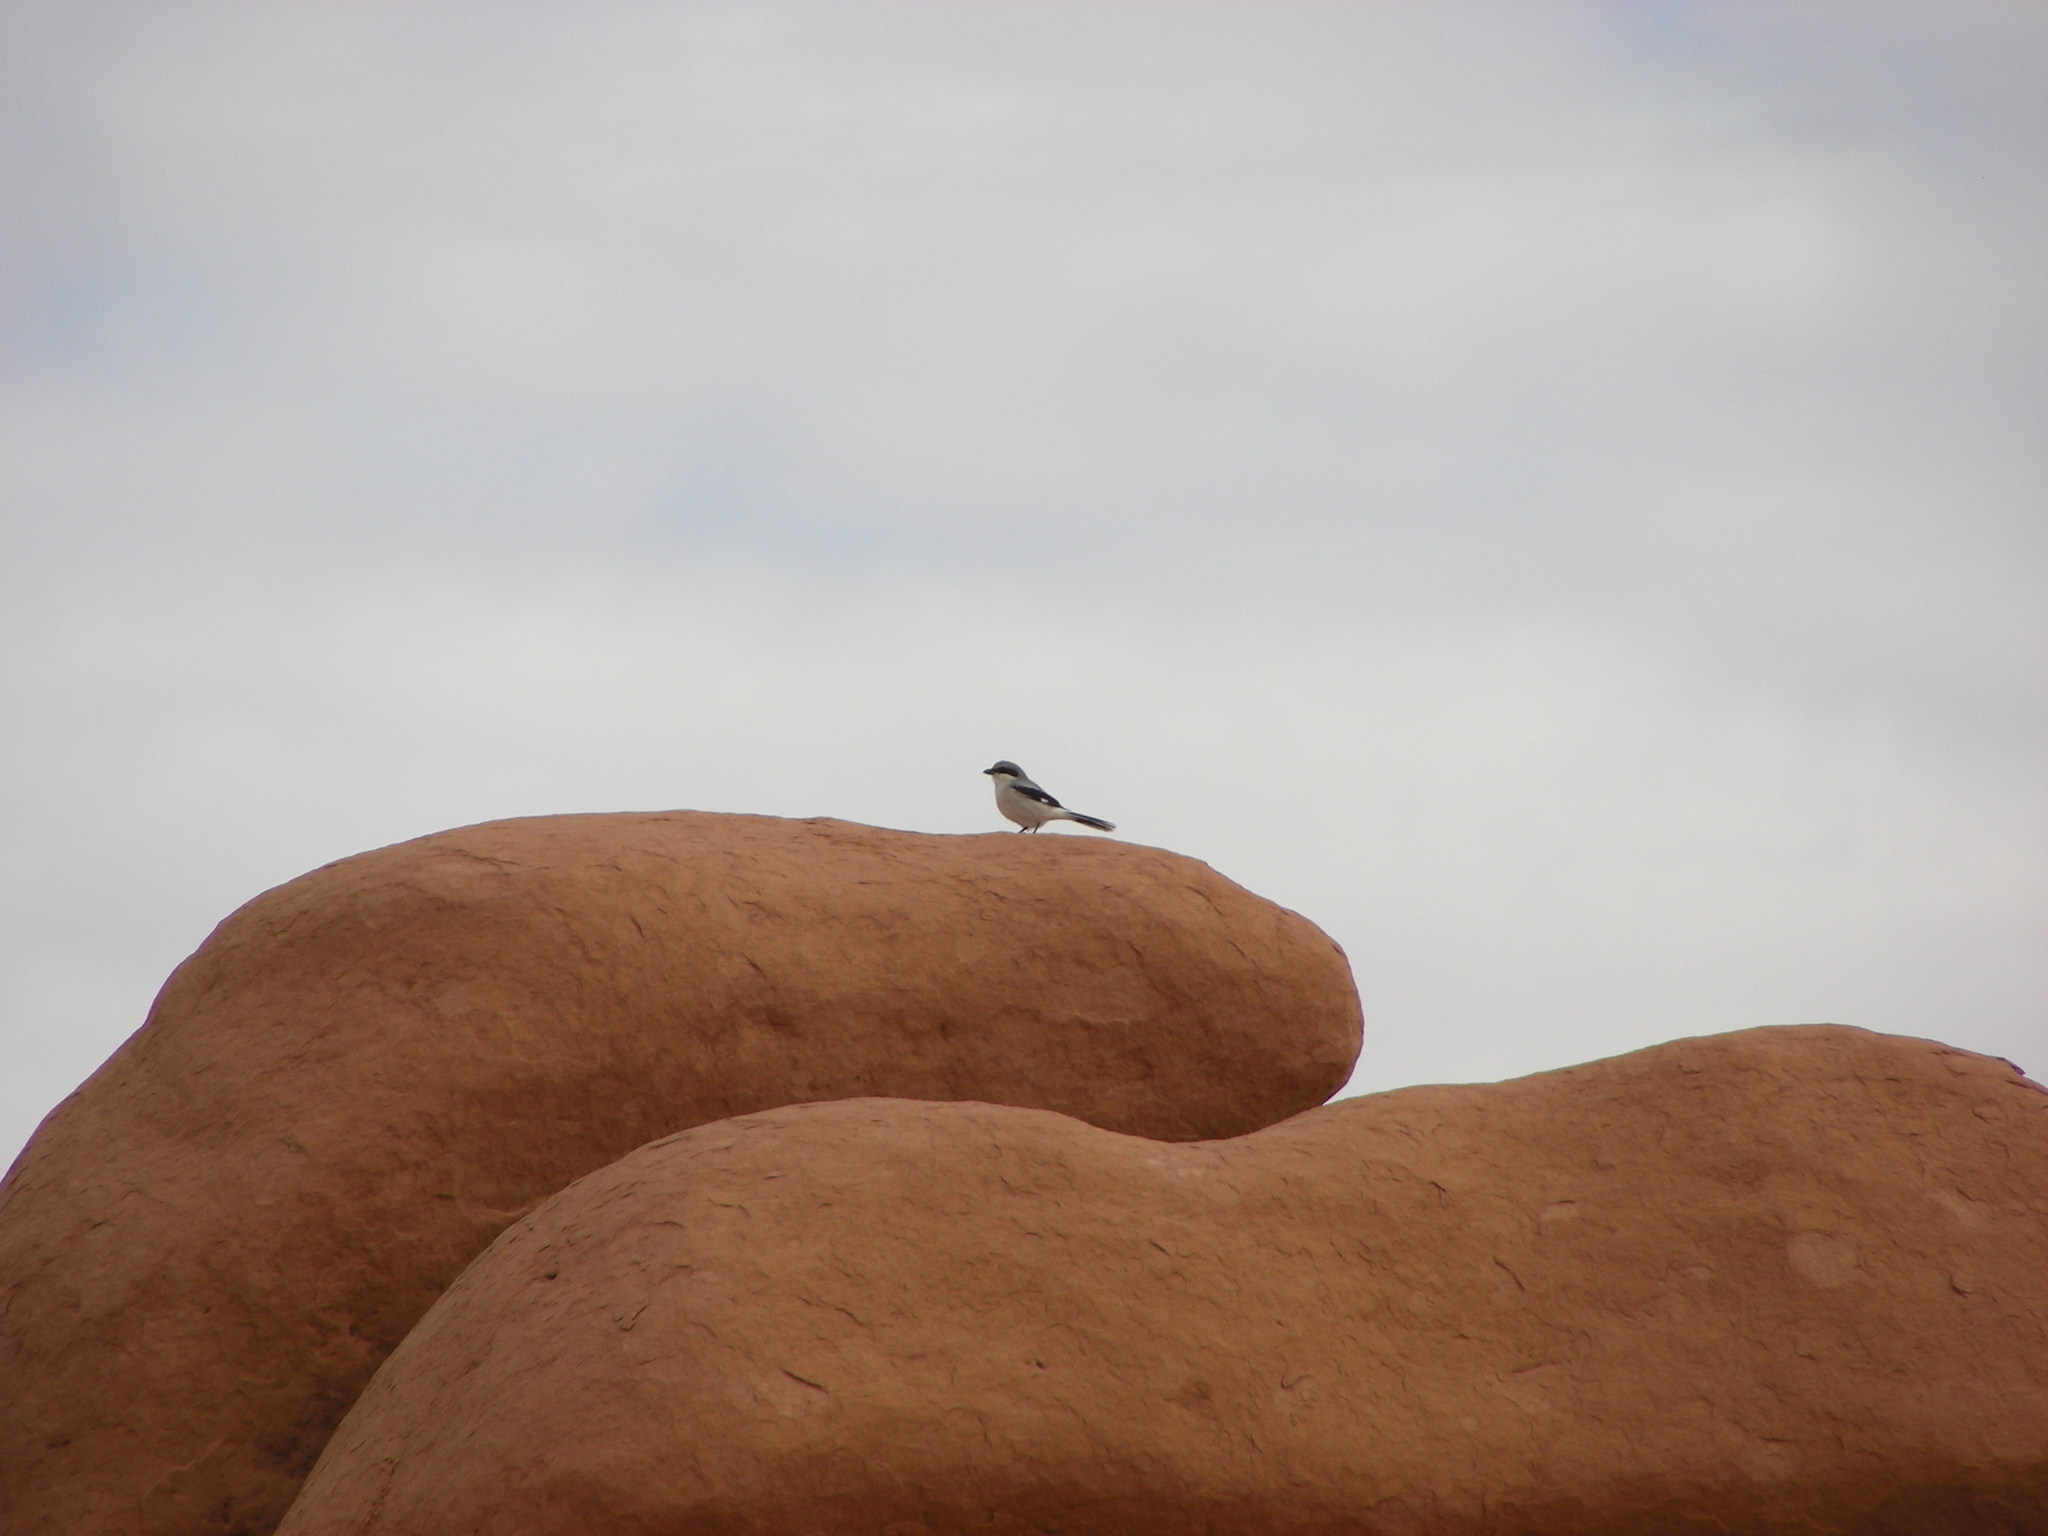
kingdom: Animalia
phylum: Chordata
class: Aves
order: Passeriformes
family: Laniidae
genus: Lanius
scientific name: Lanius ludovicianus
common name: Loggerhead shrike
